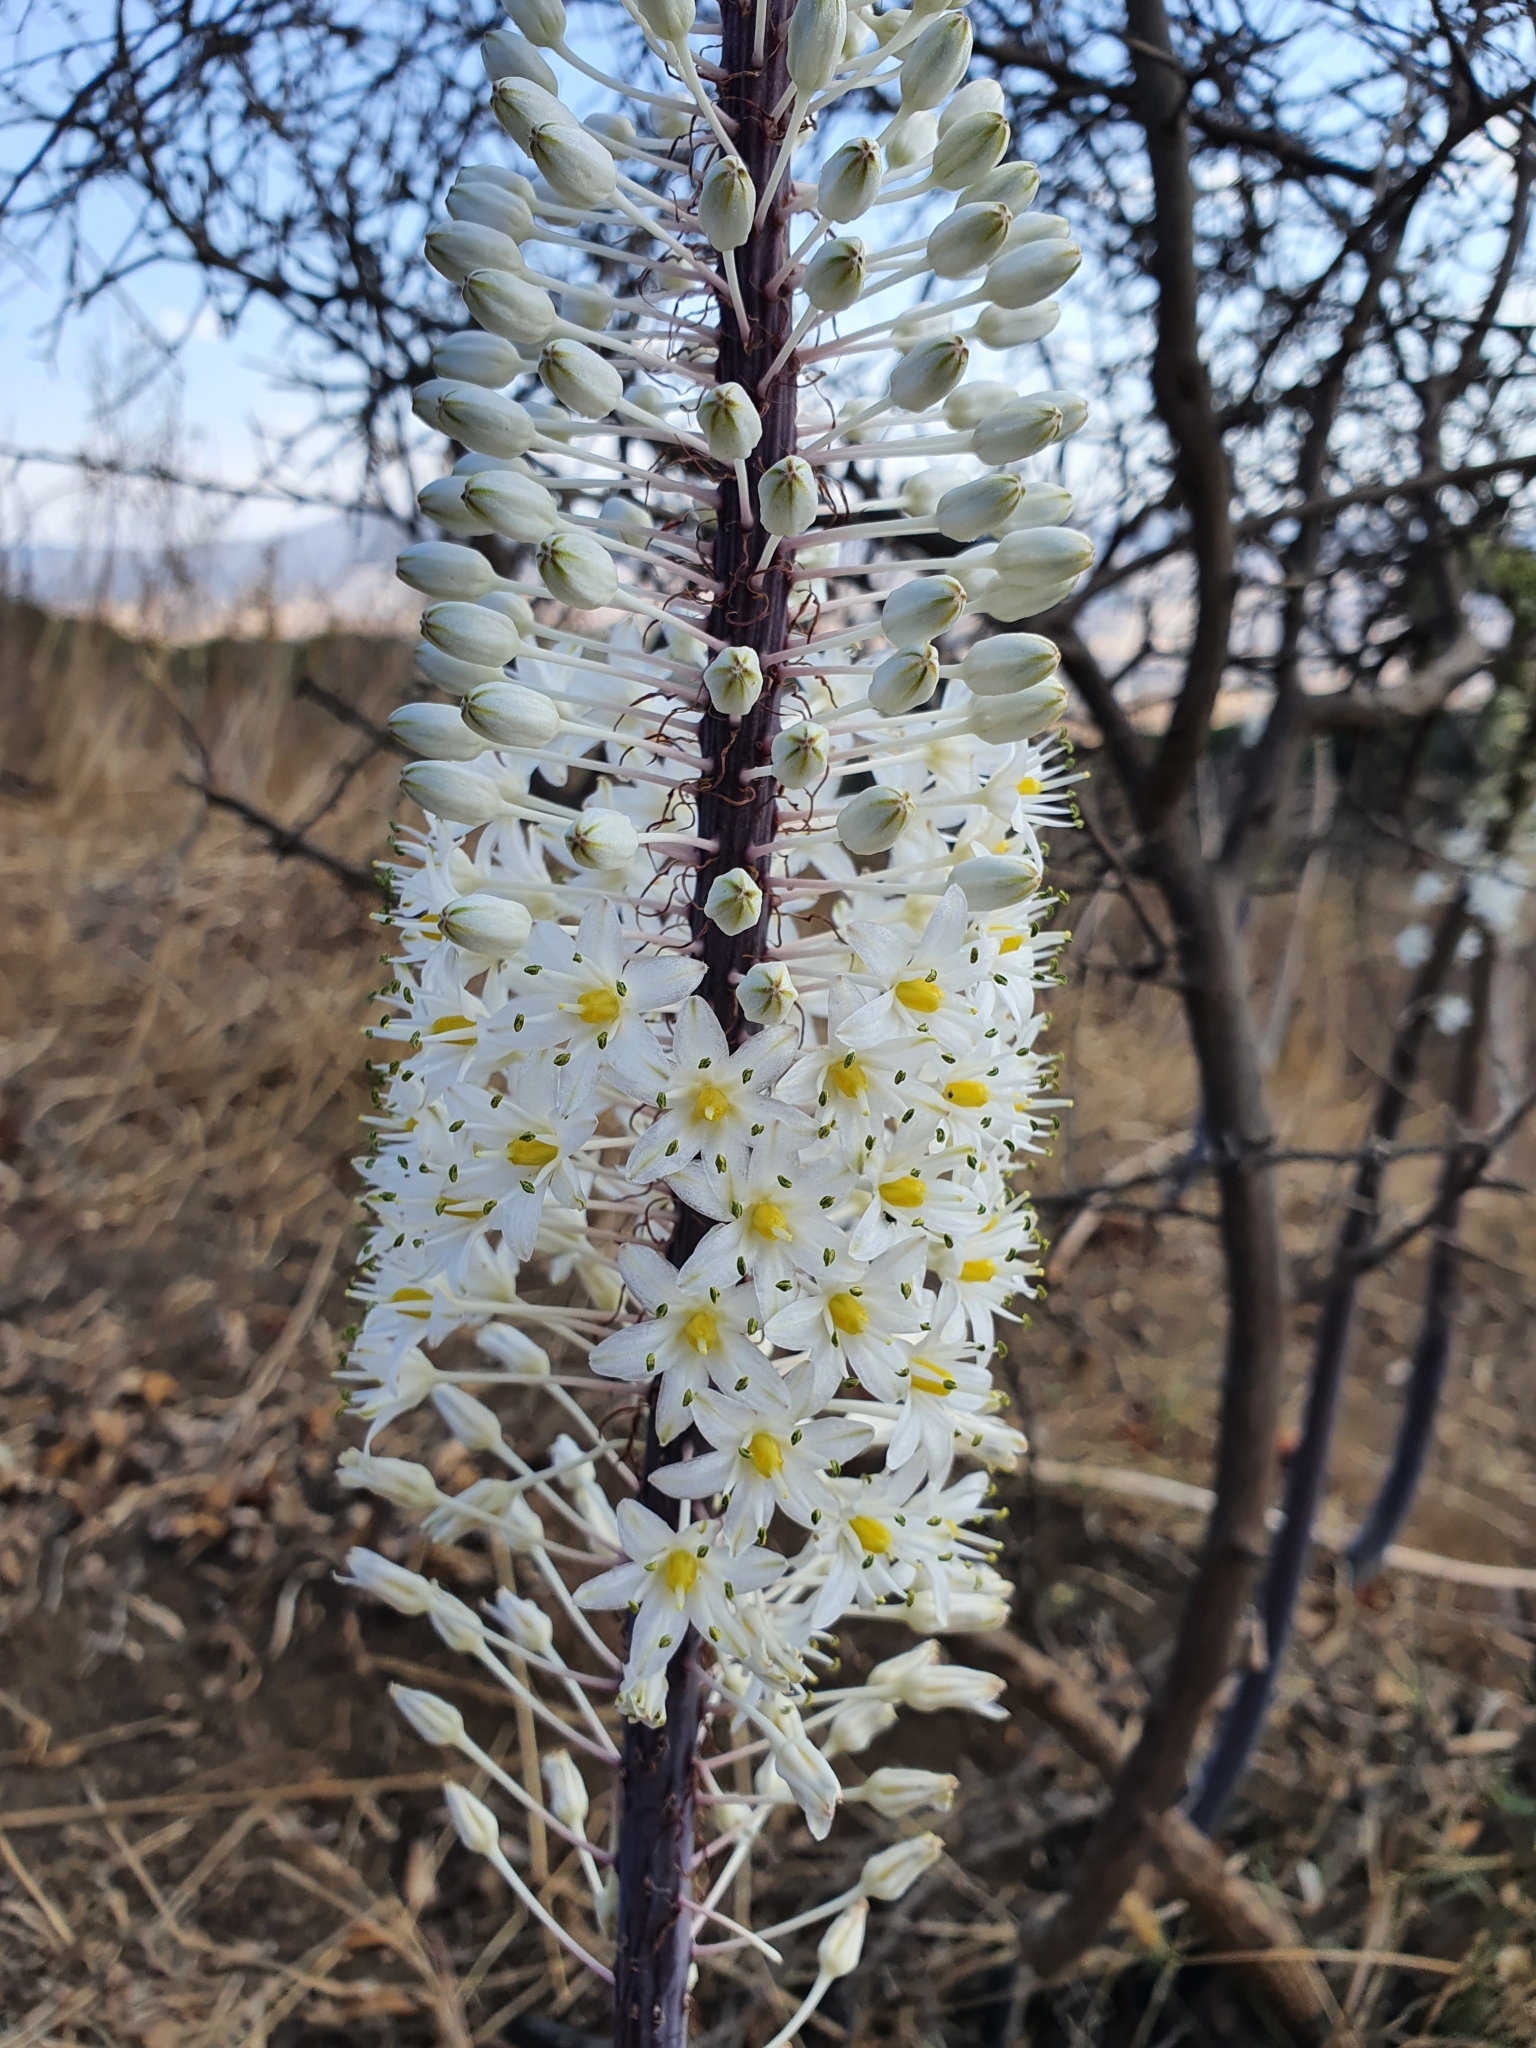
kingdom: Plantae
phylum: Tracheophyta
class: Liliopsida
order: Asparagales
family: Asparagaceae
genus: Drimia
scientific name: Drimia numidica
